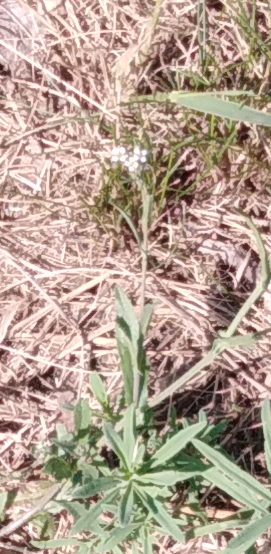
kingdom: Plantae
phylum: Tracheophyta
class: Magnoliopsida
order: Brassicales
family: Brassicaceae
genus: Berteroa
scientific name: Berteroa incana
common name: Hoary alison
